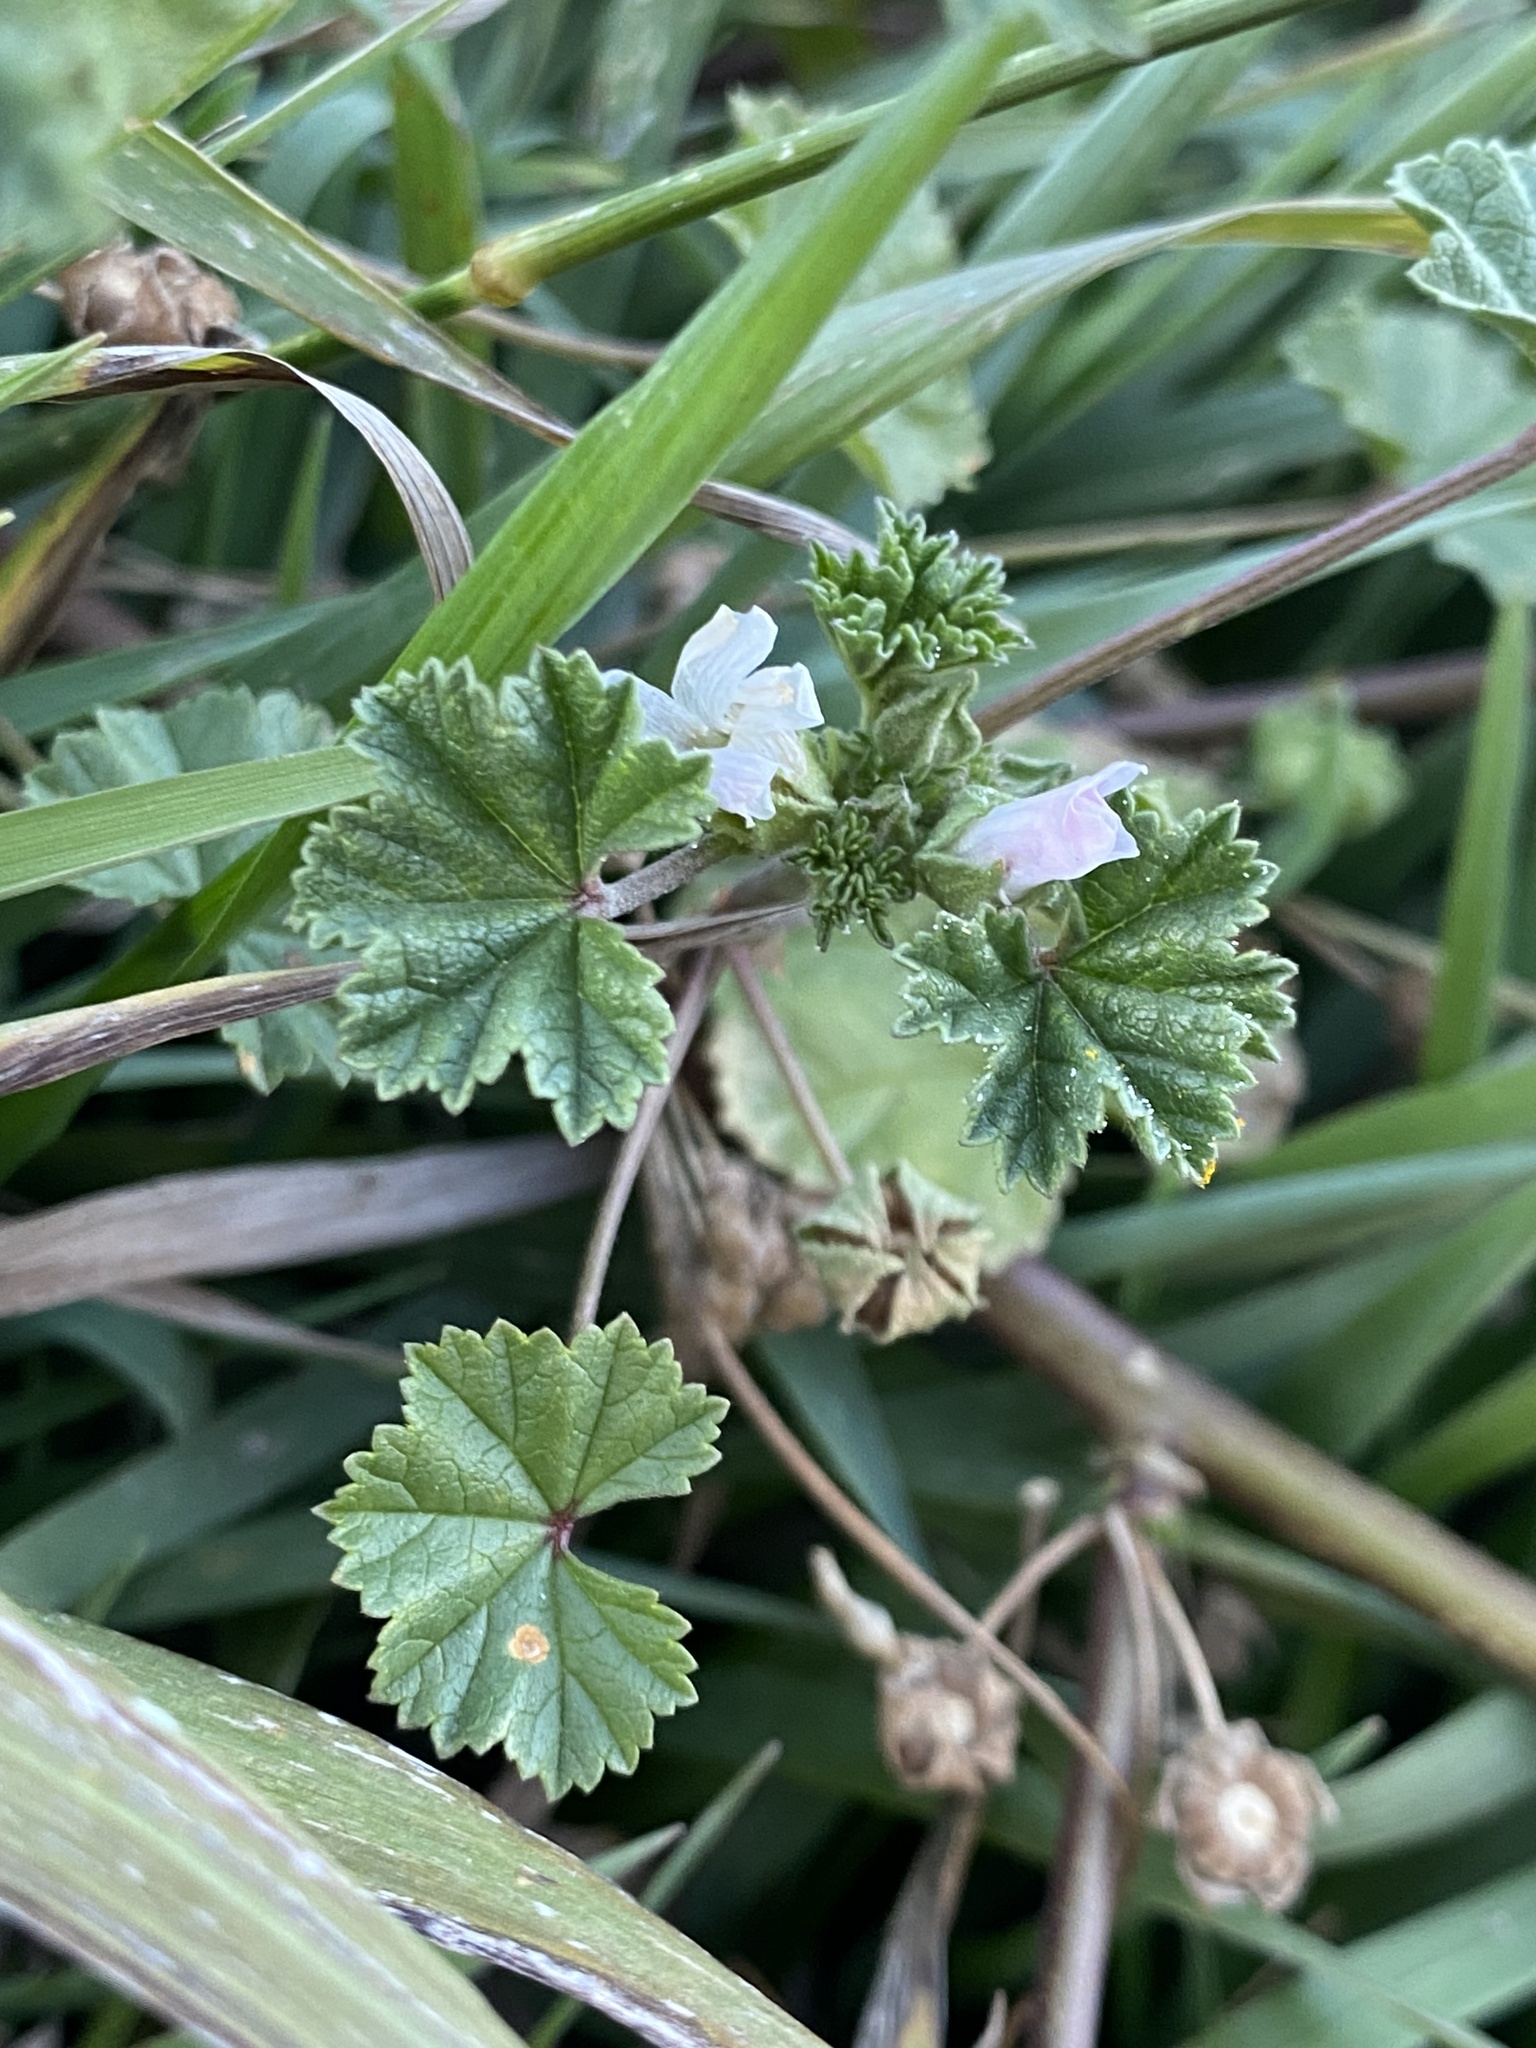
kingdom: Plantae
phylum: Tracheophyta
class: Magnoliopsida
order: Malvales
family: Malvaceae
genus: Malva
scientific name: Malva neglecta
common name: Common mallow
